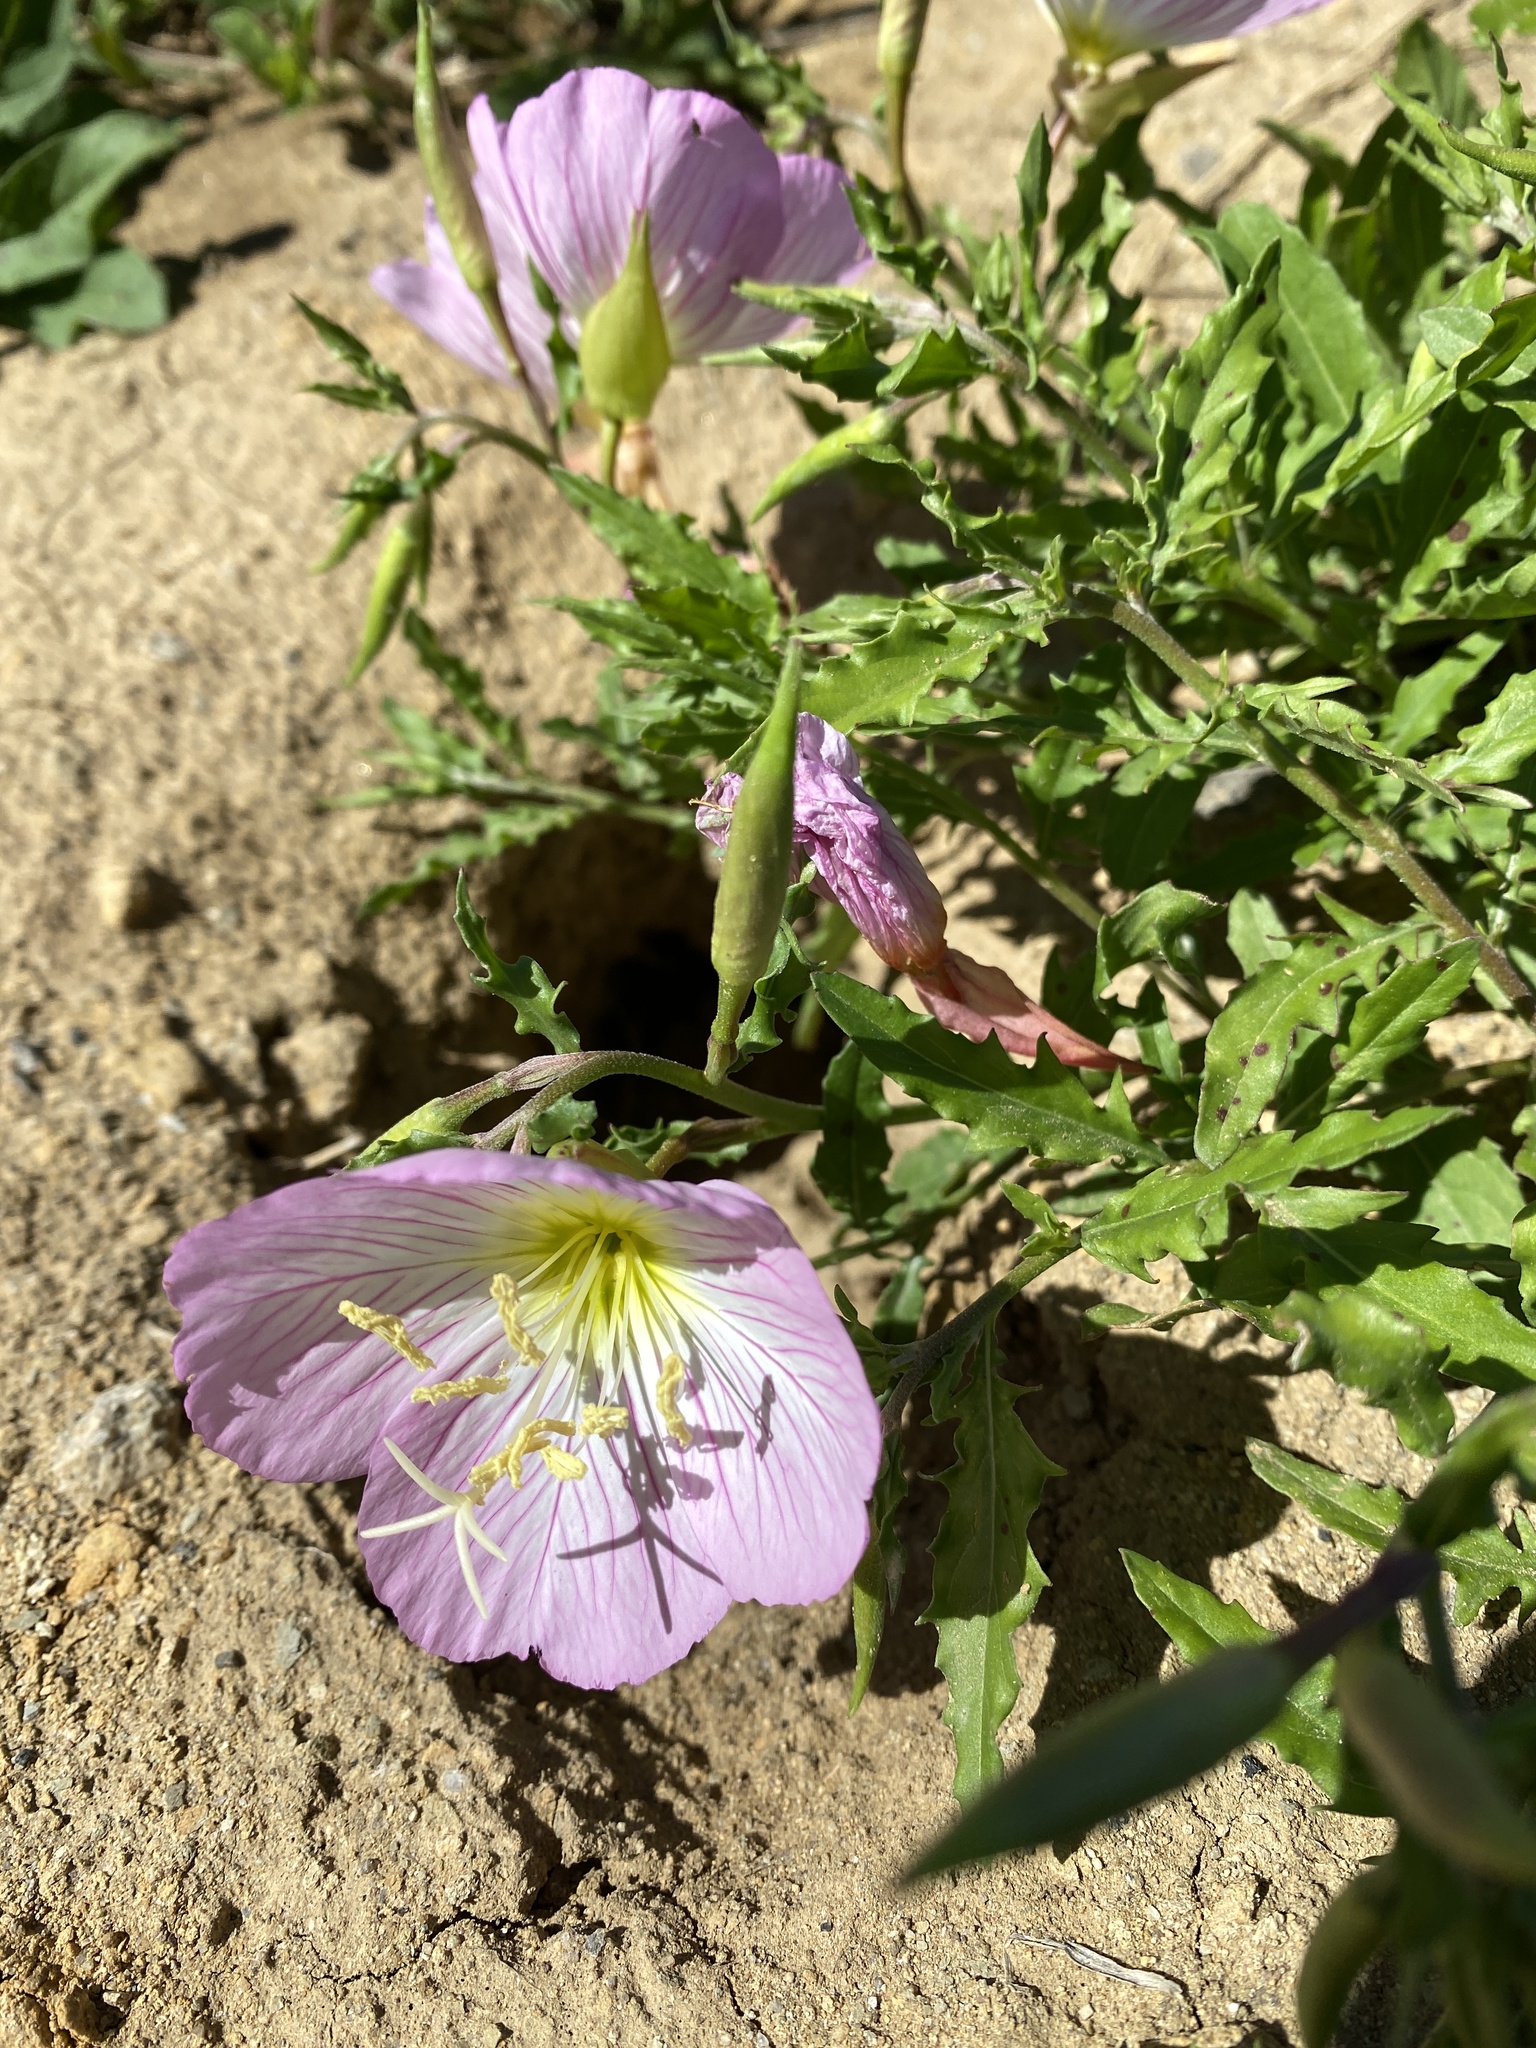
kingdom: Plantae
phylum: Tracheophyta
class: Magnoliopsida
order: Myrtales
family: Onagraceae
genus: Oenothera
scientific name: Oenothera speciosa
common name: White evening-primrose
